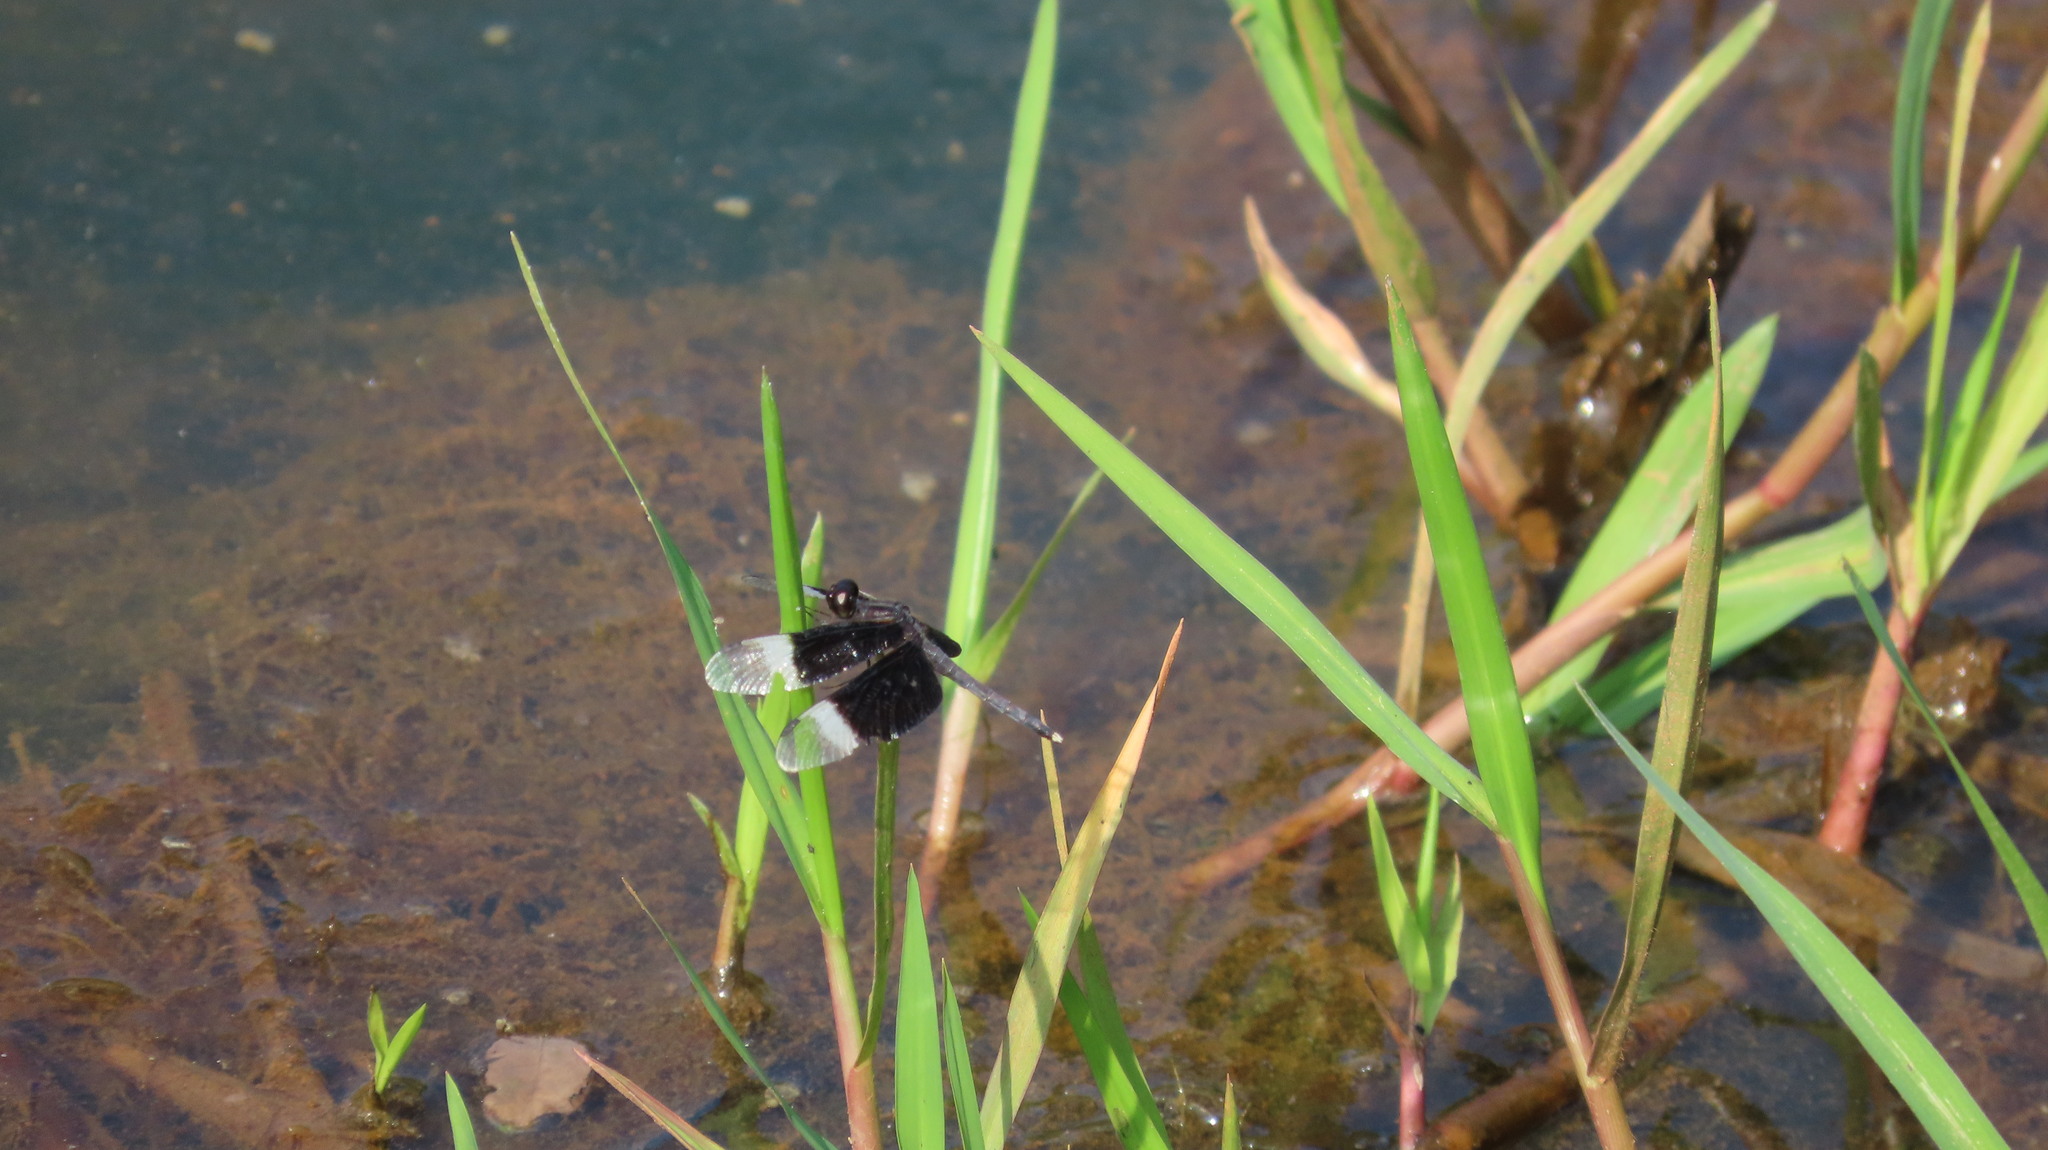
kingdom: Animalia
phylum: Arthropoda
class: Insecta
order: Odonata
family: Libellulidae
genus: Neurothemis
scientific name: Neurothemis tullia
